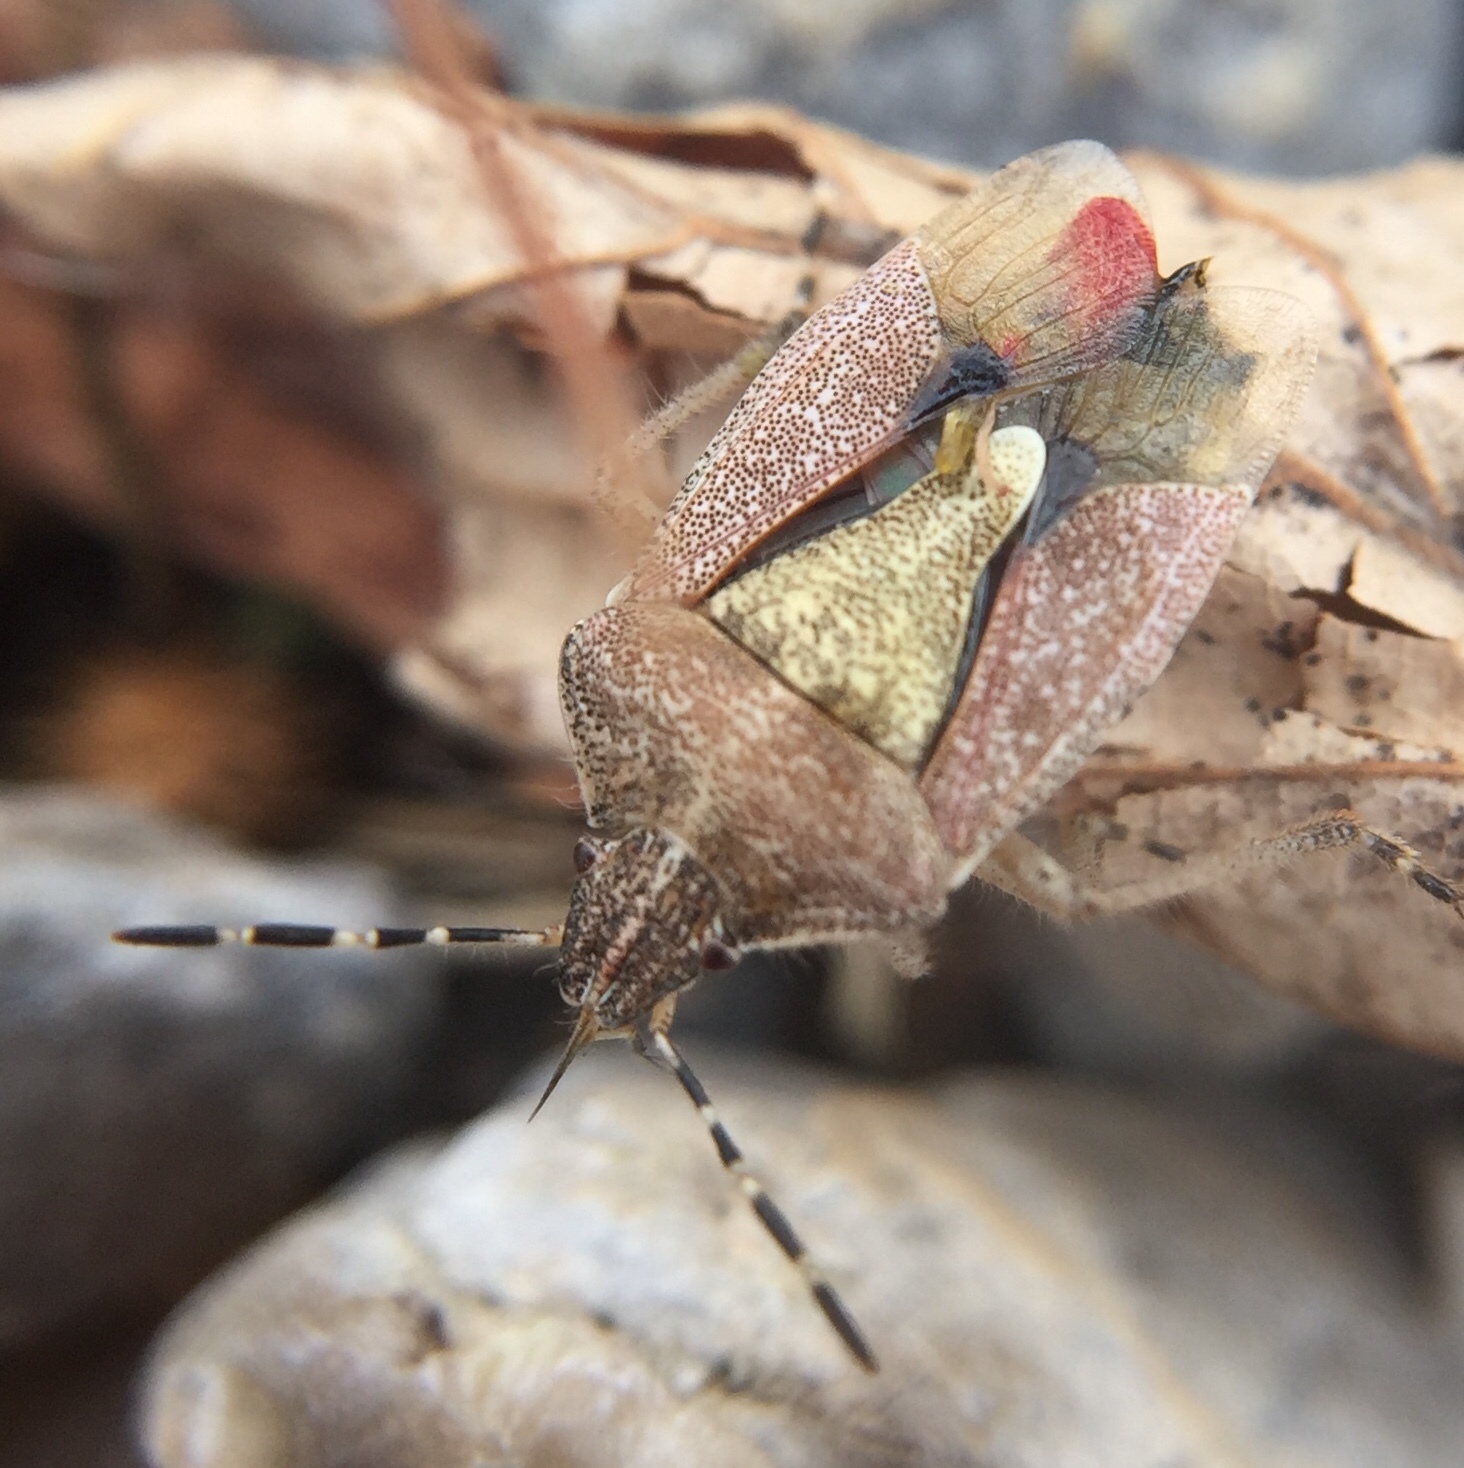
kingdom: Animalia
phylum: Arthropoda
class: Insecta
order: Hemiptera
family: Pentatomidae
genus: Dolycoris
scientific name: Dolycoris baccarum
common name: Sloe bug
